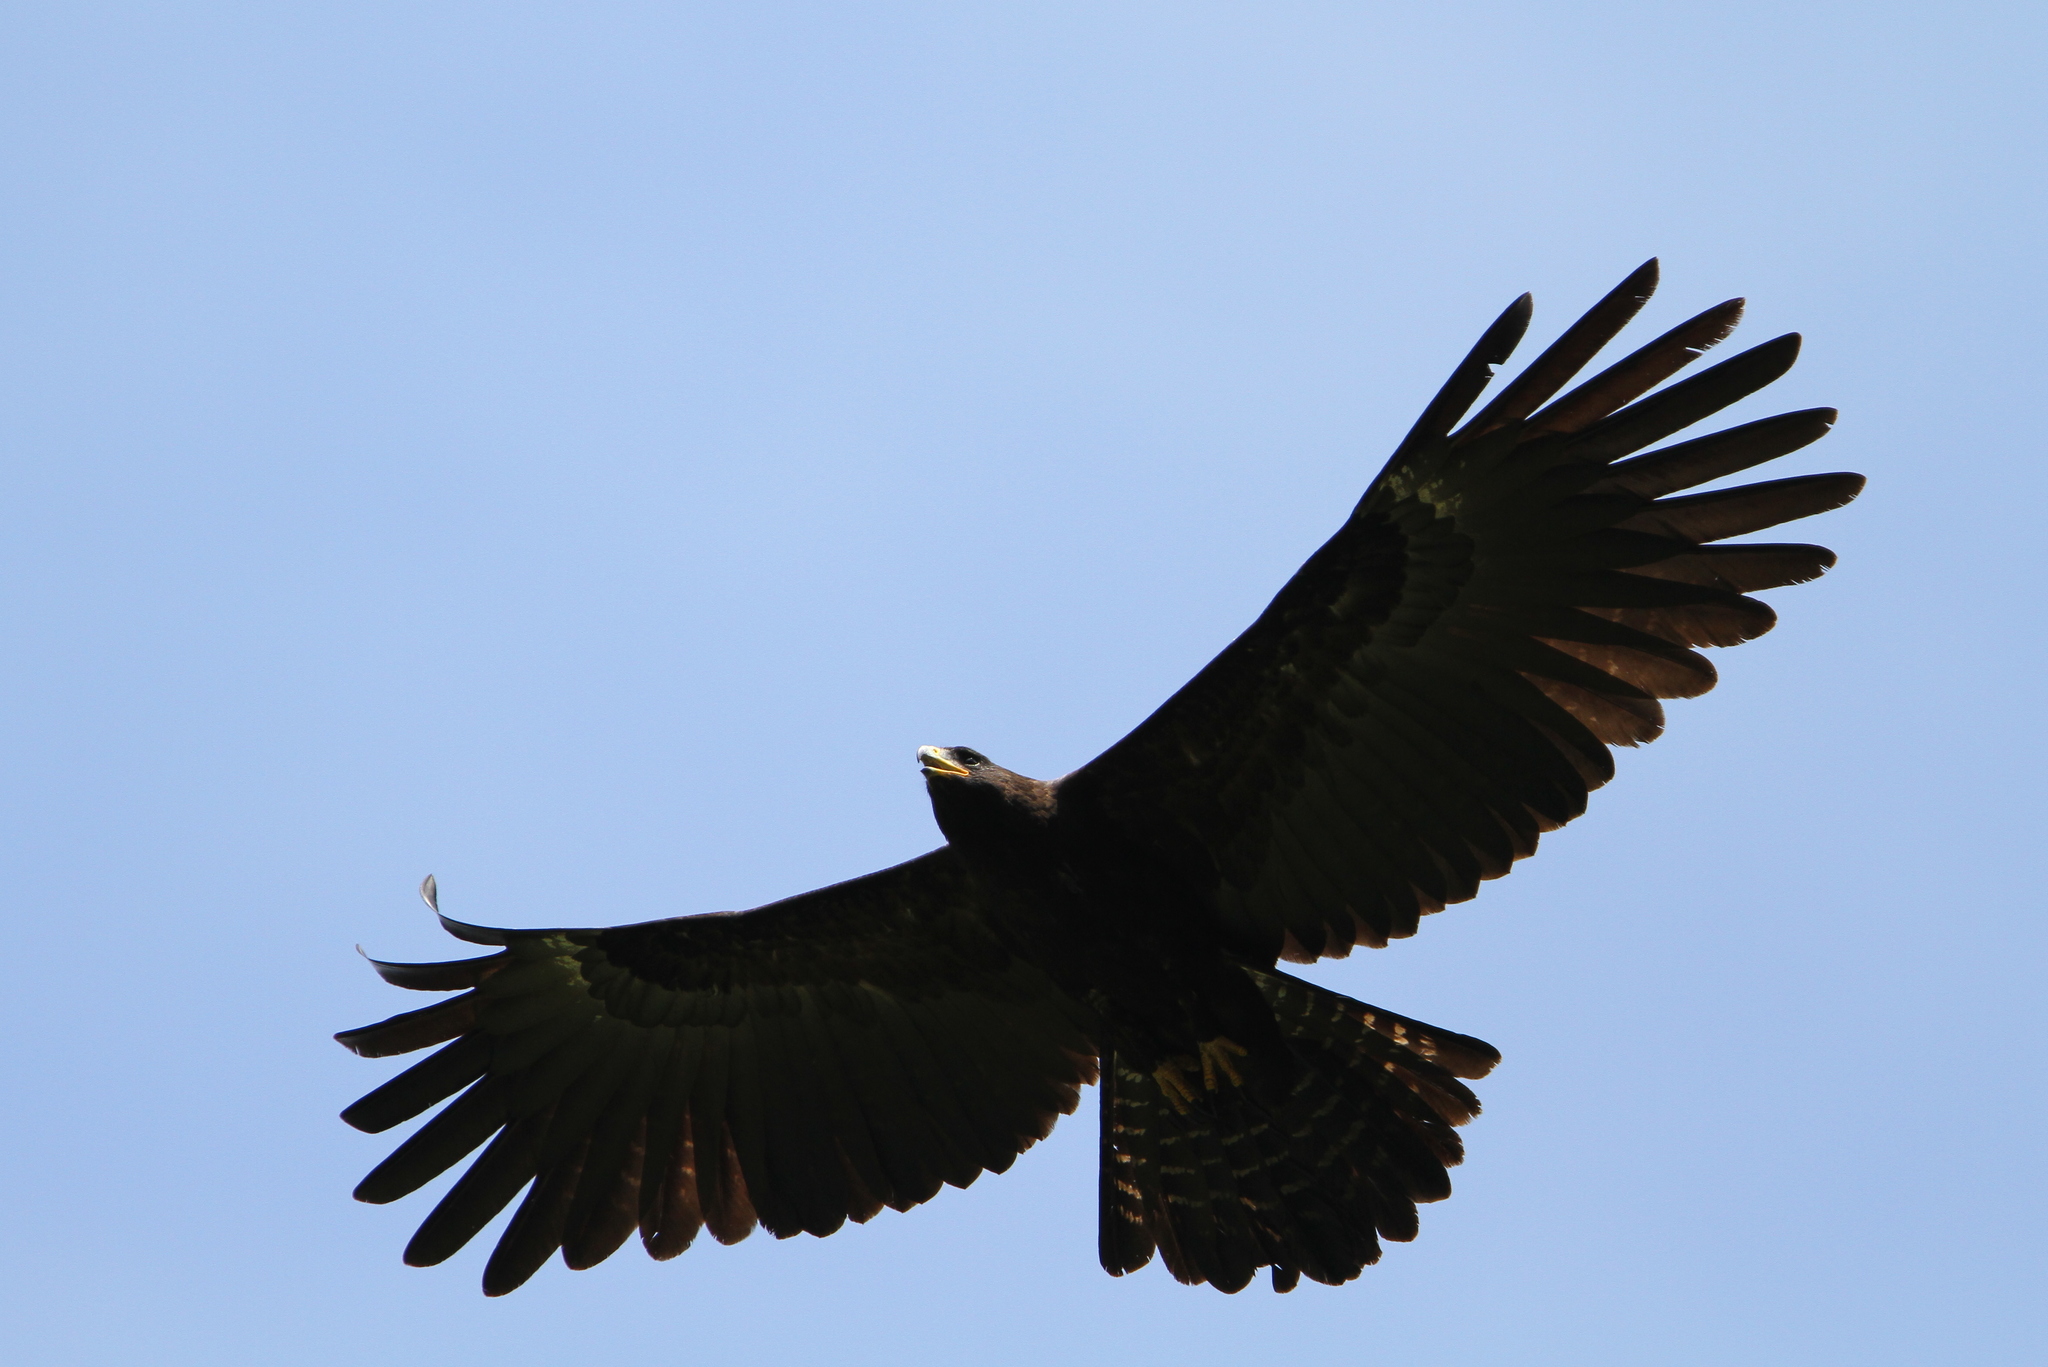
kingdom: Animalia
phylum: Chordata
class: Aves
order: Accipitriformes
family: Accipitridae
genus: Ictinaetus
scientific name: Ictinaetus malayensis
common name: Black eagle
